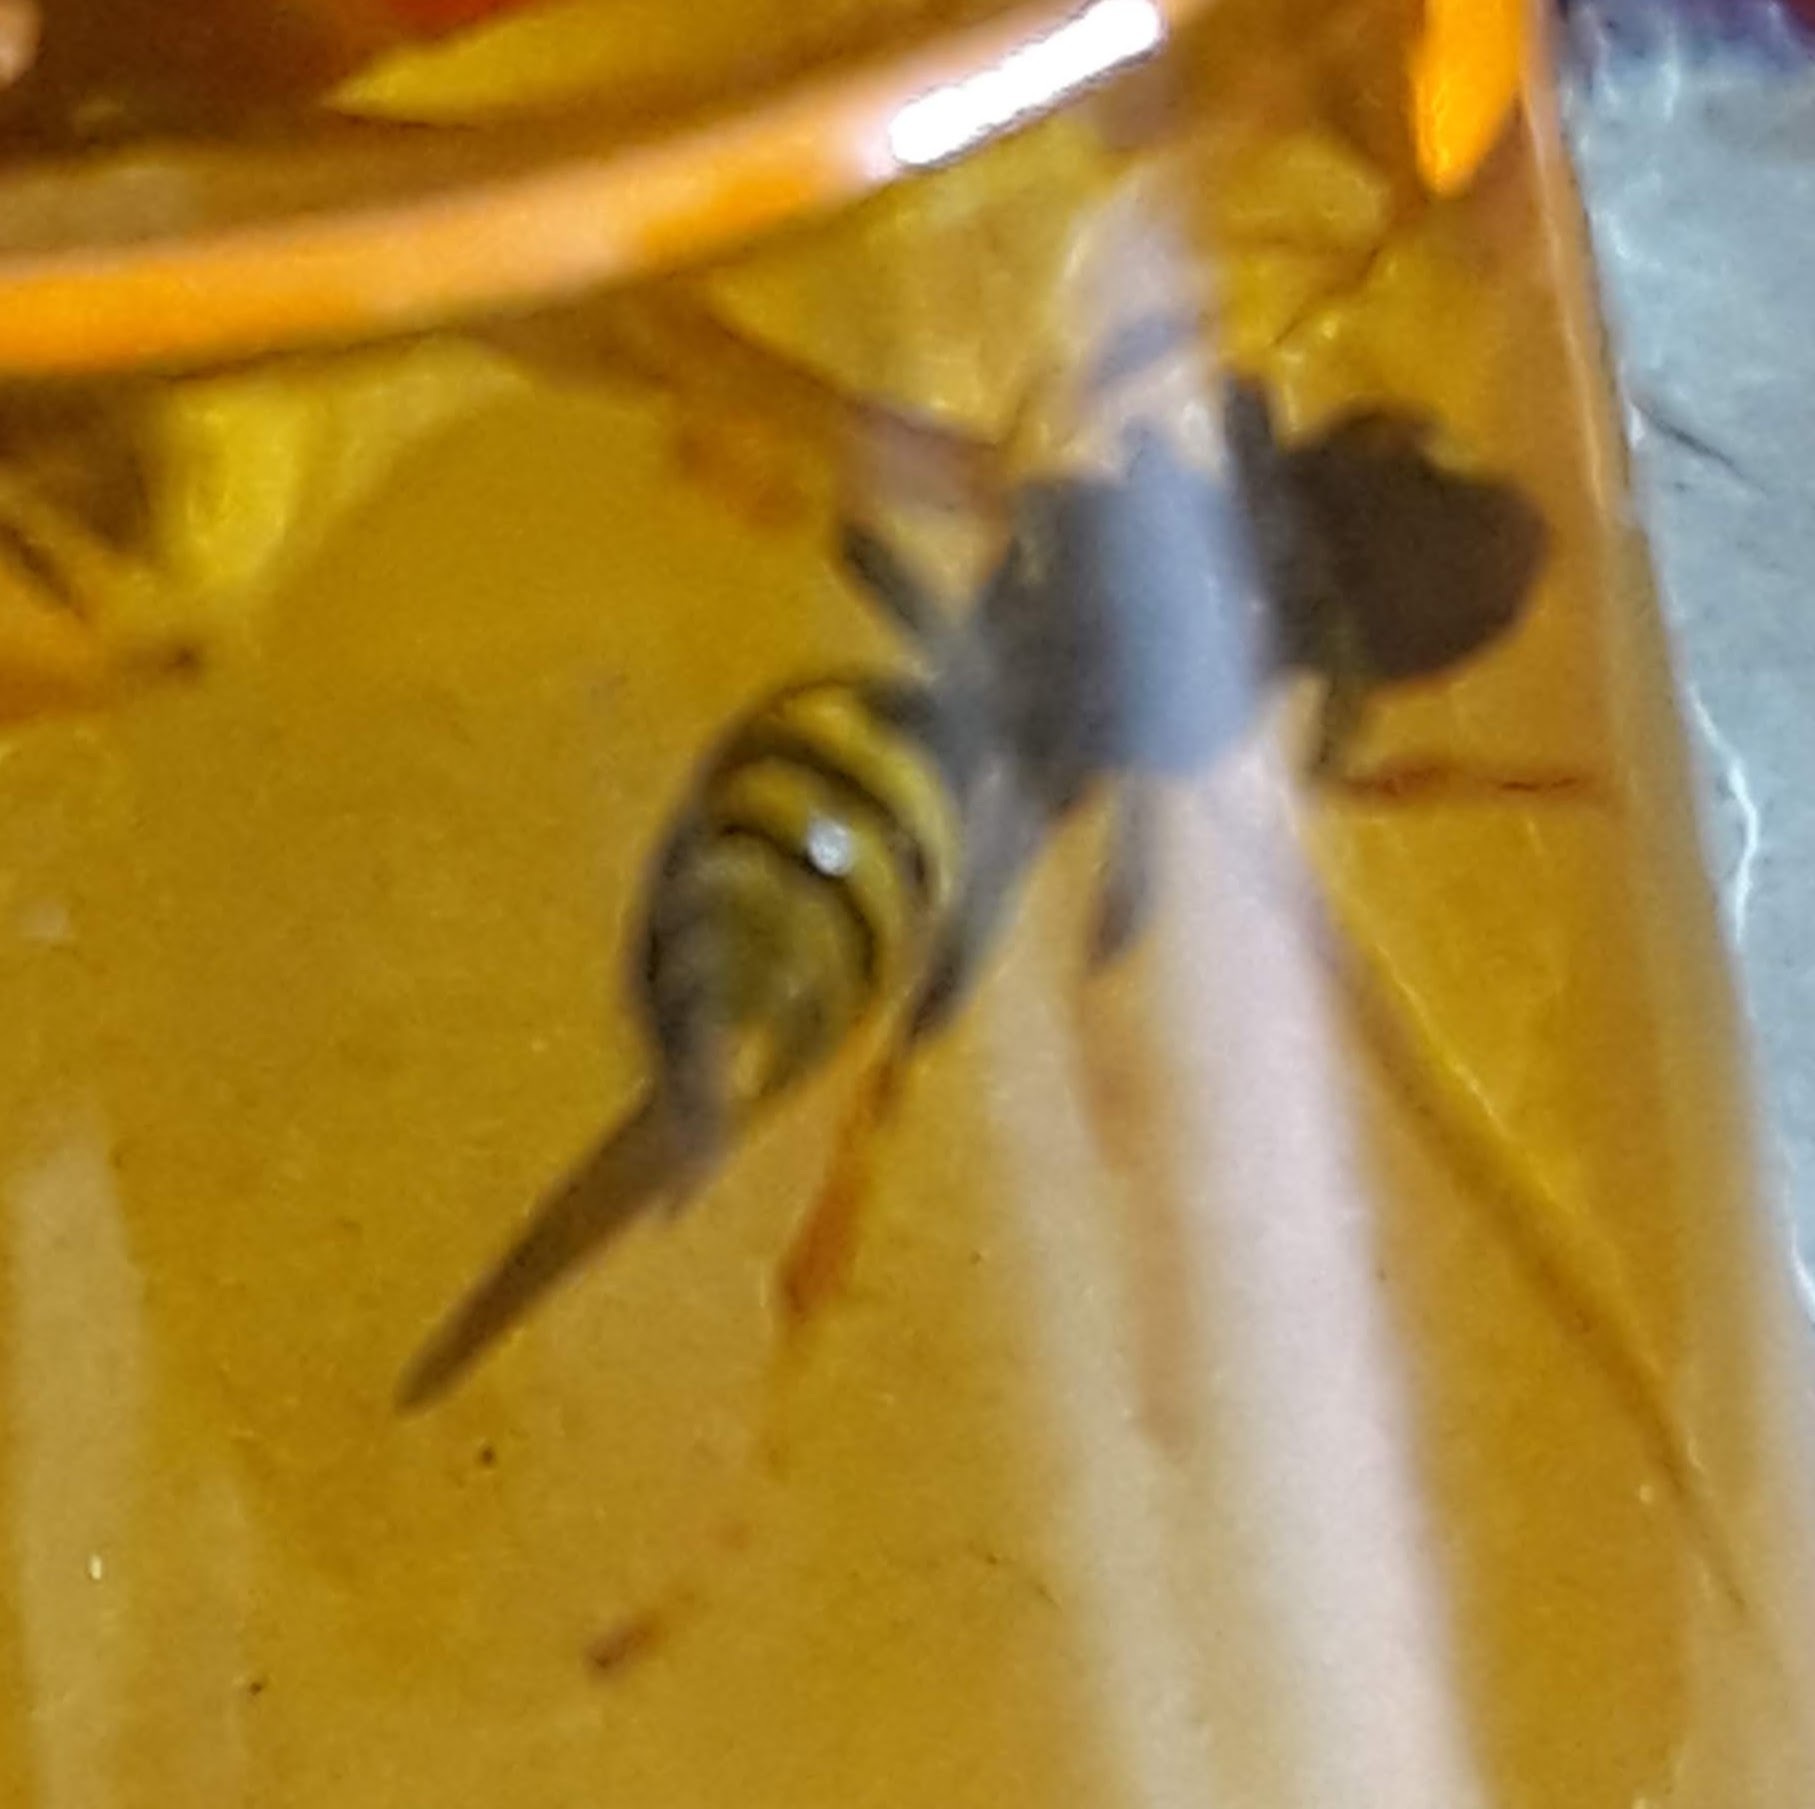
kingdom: Animalia
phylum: Arthropoda
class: Insecta
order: Hymenoptera
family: Eumenidae
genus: Polistes
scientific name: Polistes dominula
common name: Paper wasp
